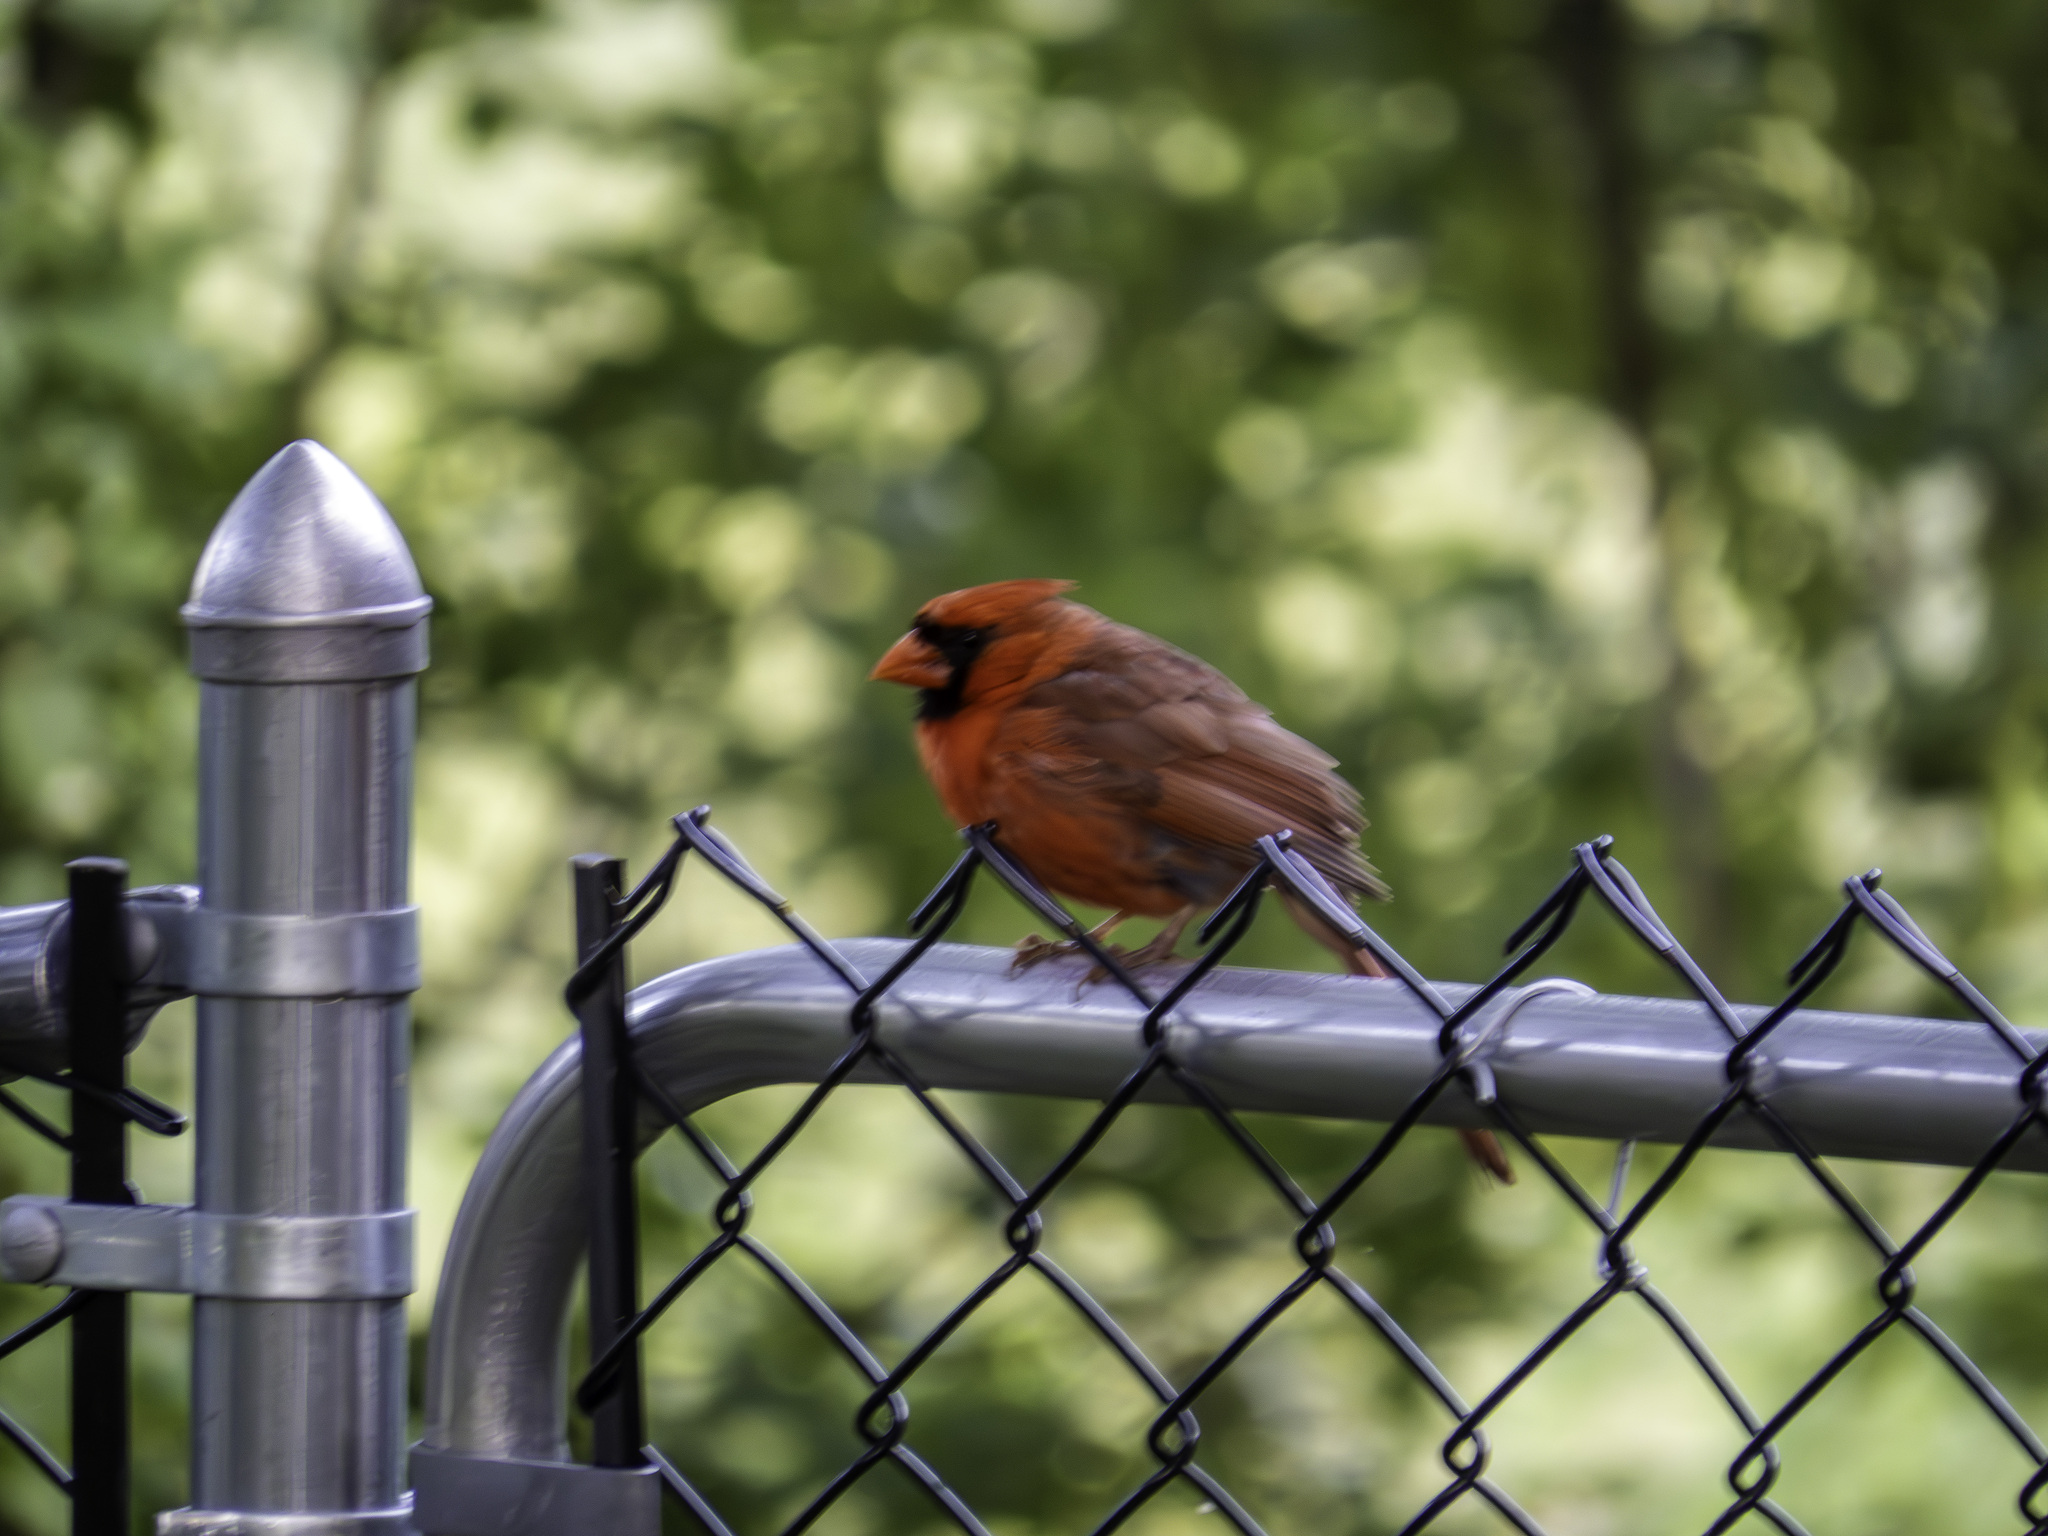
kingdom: Animalia
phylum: Chordata
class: Aves
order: Passeriformes
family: Cardinalidae
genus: Cardinalis
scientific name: Cardinalis cardinalis
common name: Northern cardinal
